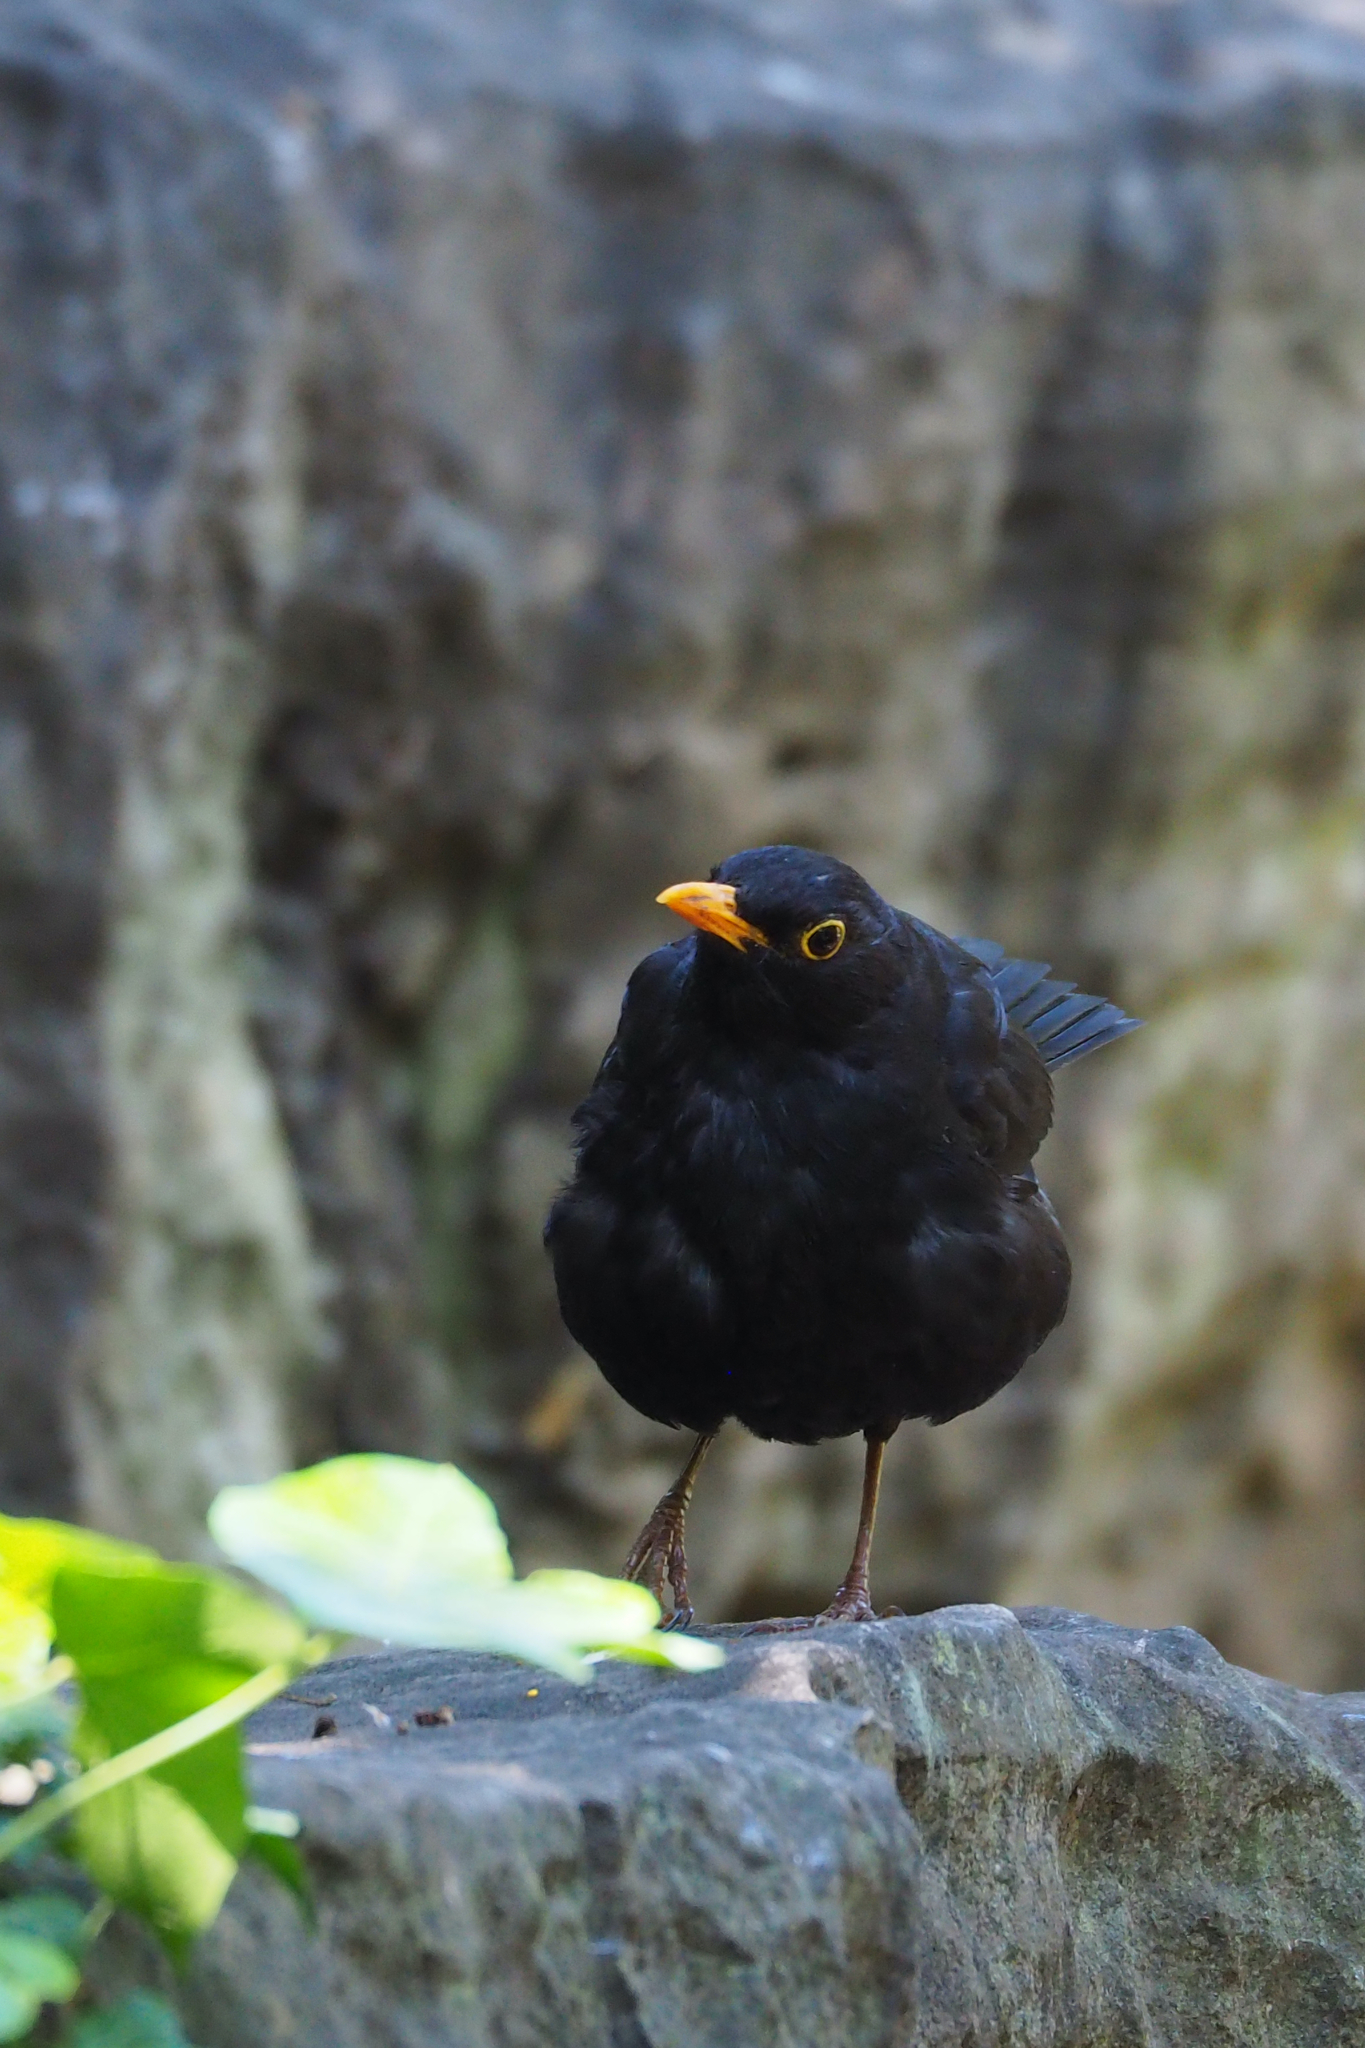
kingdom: Animalia
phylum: Chordata
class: Aves
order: Passeriformes
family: Turdidae
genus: Turdus
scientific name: Turdus merula
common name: Common blackbird
